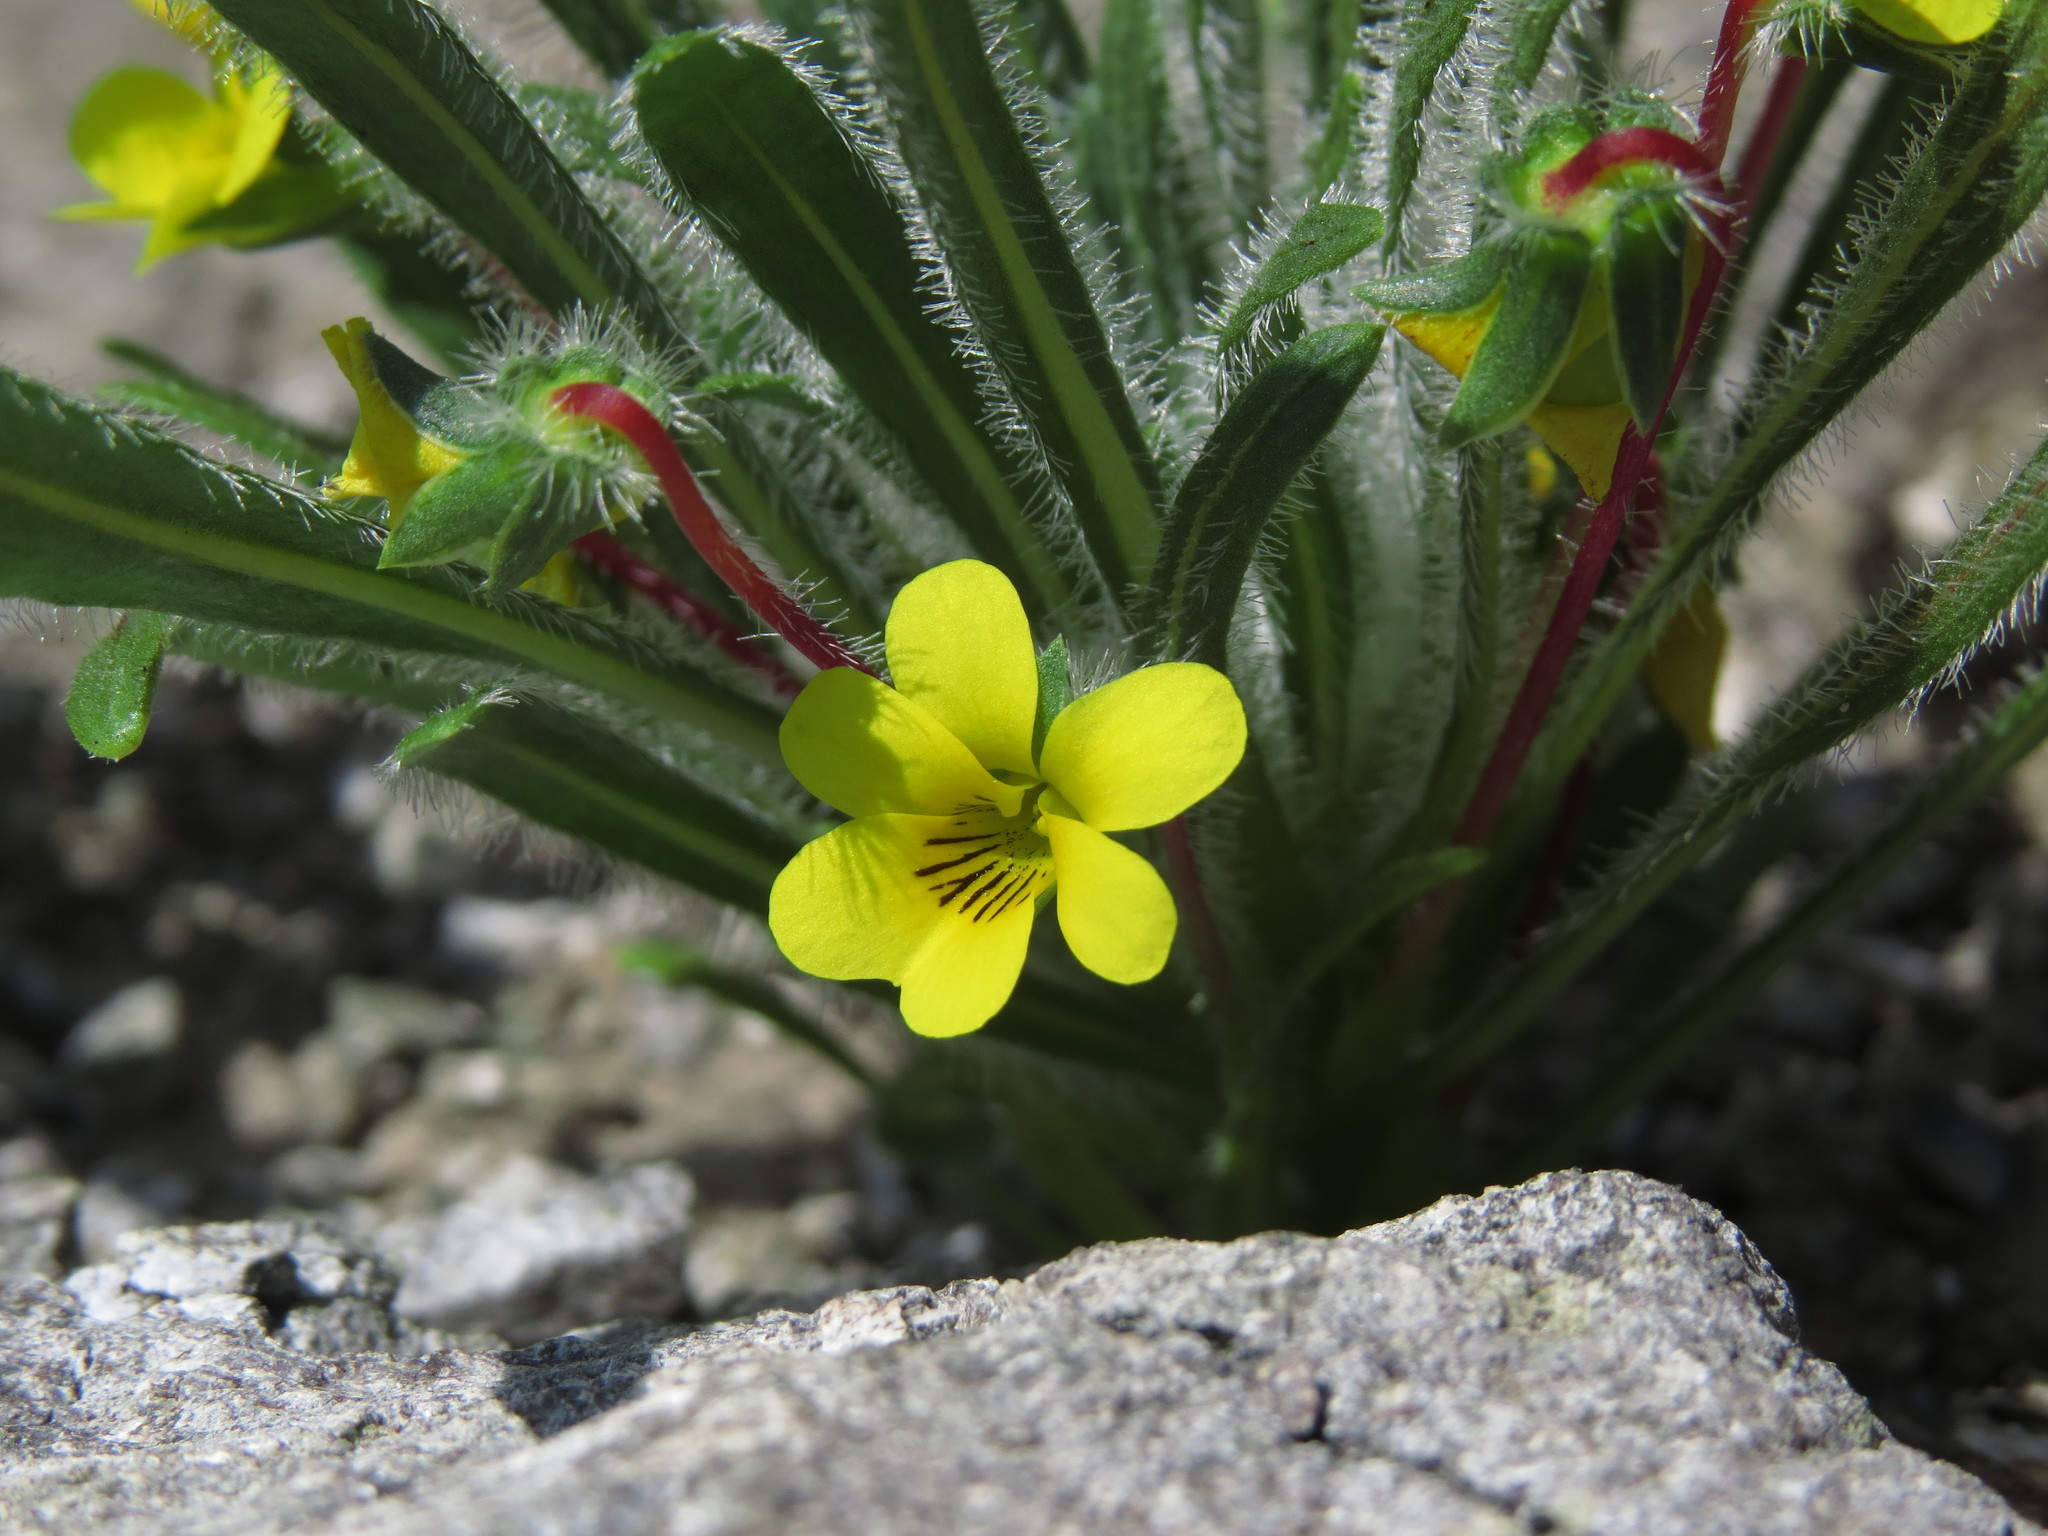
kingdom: Plantae
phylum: Tracheophyta
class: Magnoliopsida
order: Malpighiales
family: Violaceae
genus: Viola
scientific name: Viola pusilla
